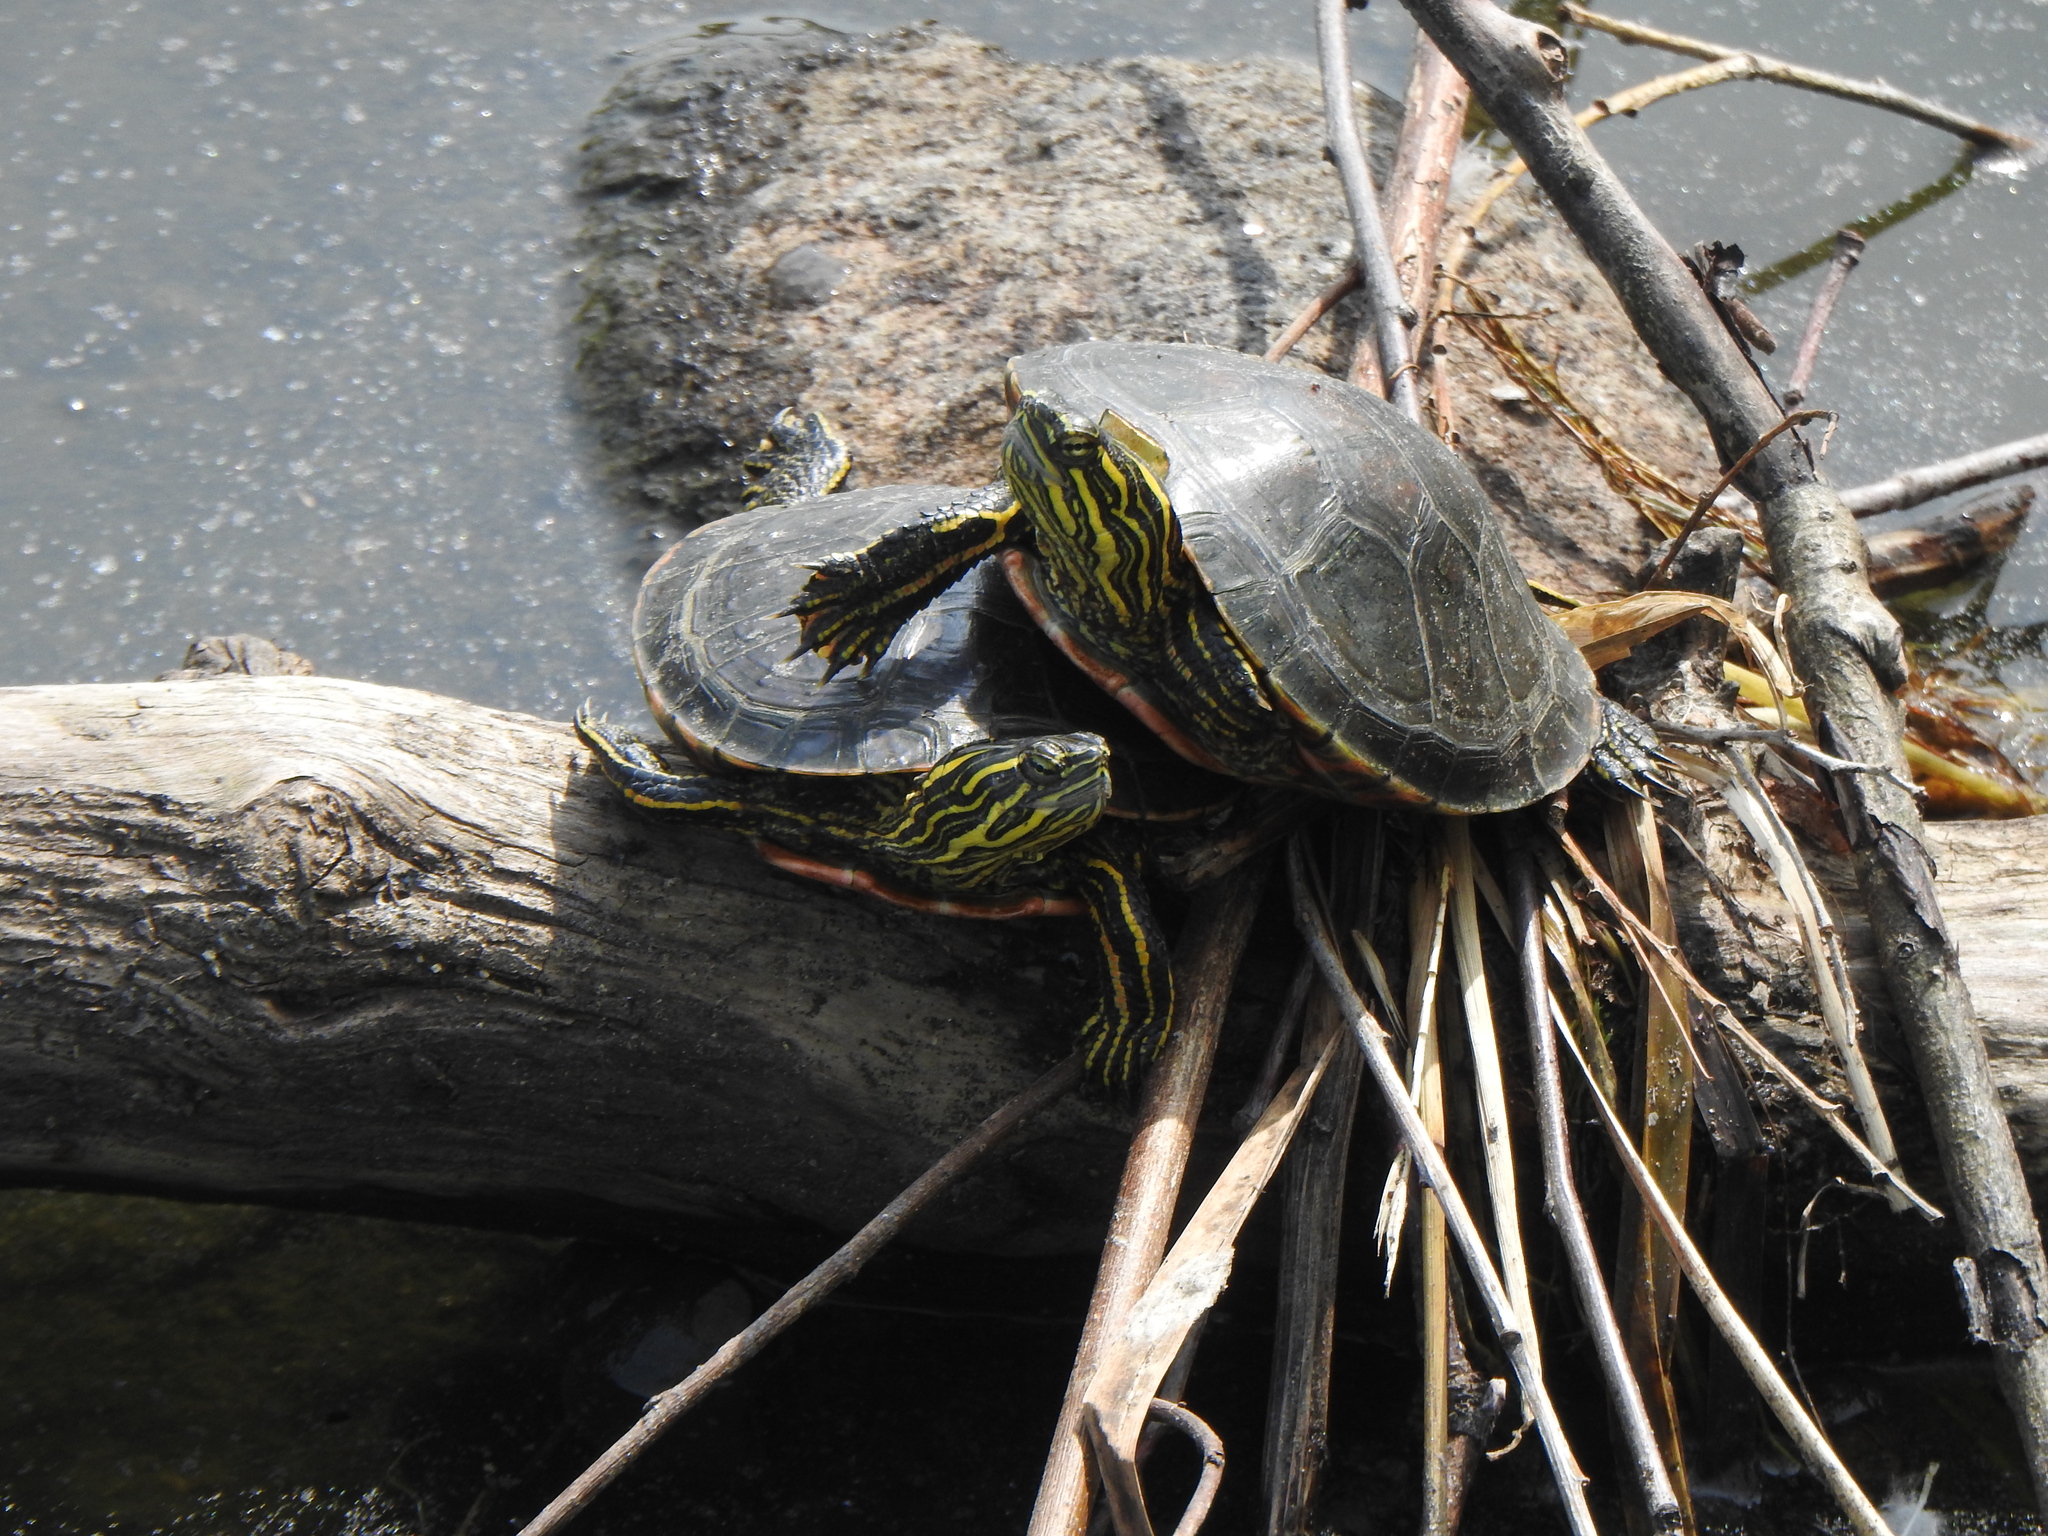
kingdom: Animalia
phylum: Chordata
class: Testudines
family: Emydidae
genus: Chrysemys
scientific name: Chrysemys picta
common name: Painted turtle
